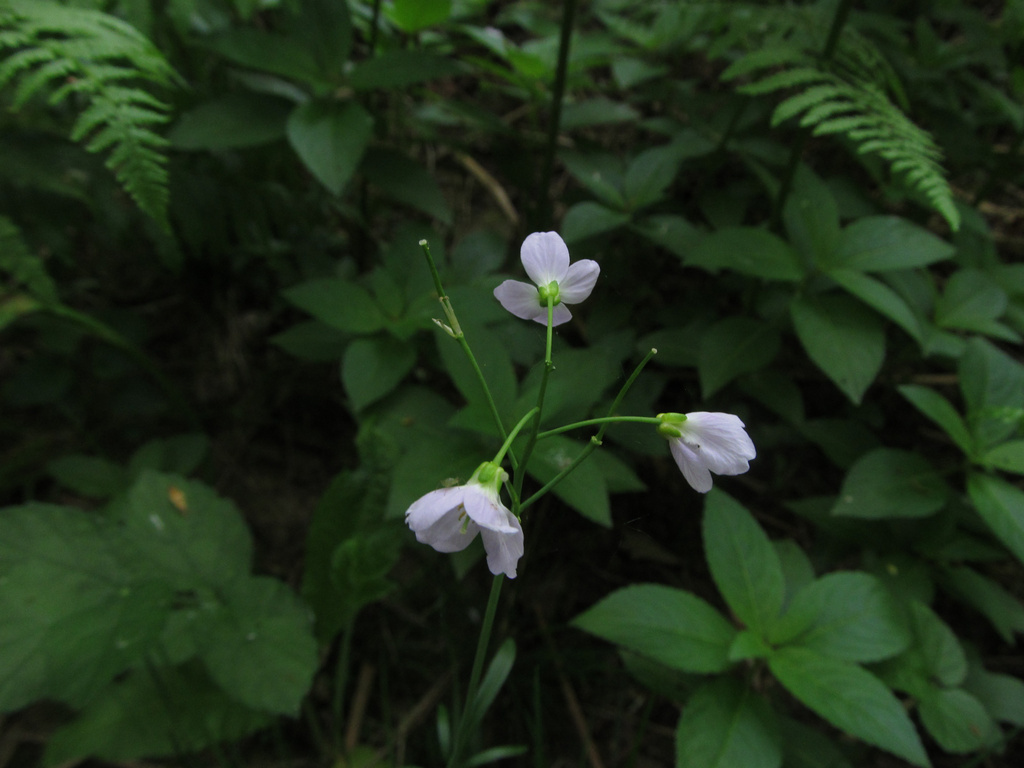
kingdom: Plantae
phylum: Tracheophyta
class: Magnoliopsida
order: Brassicales
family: Brassicaceae
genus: Cardamine
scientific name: Cardamine pratensis
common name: Cuckoo flower
